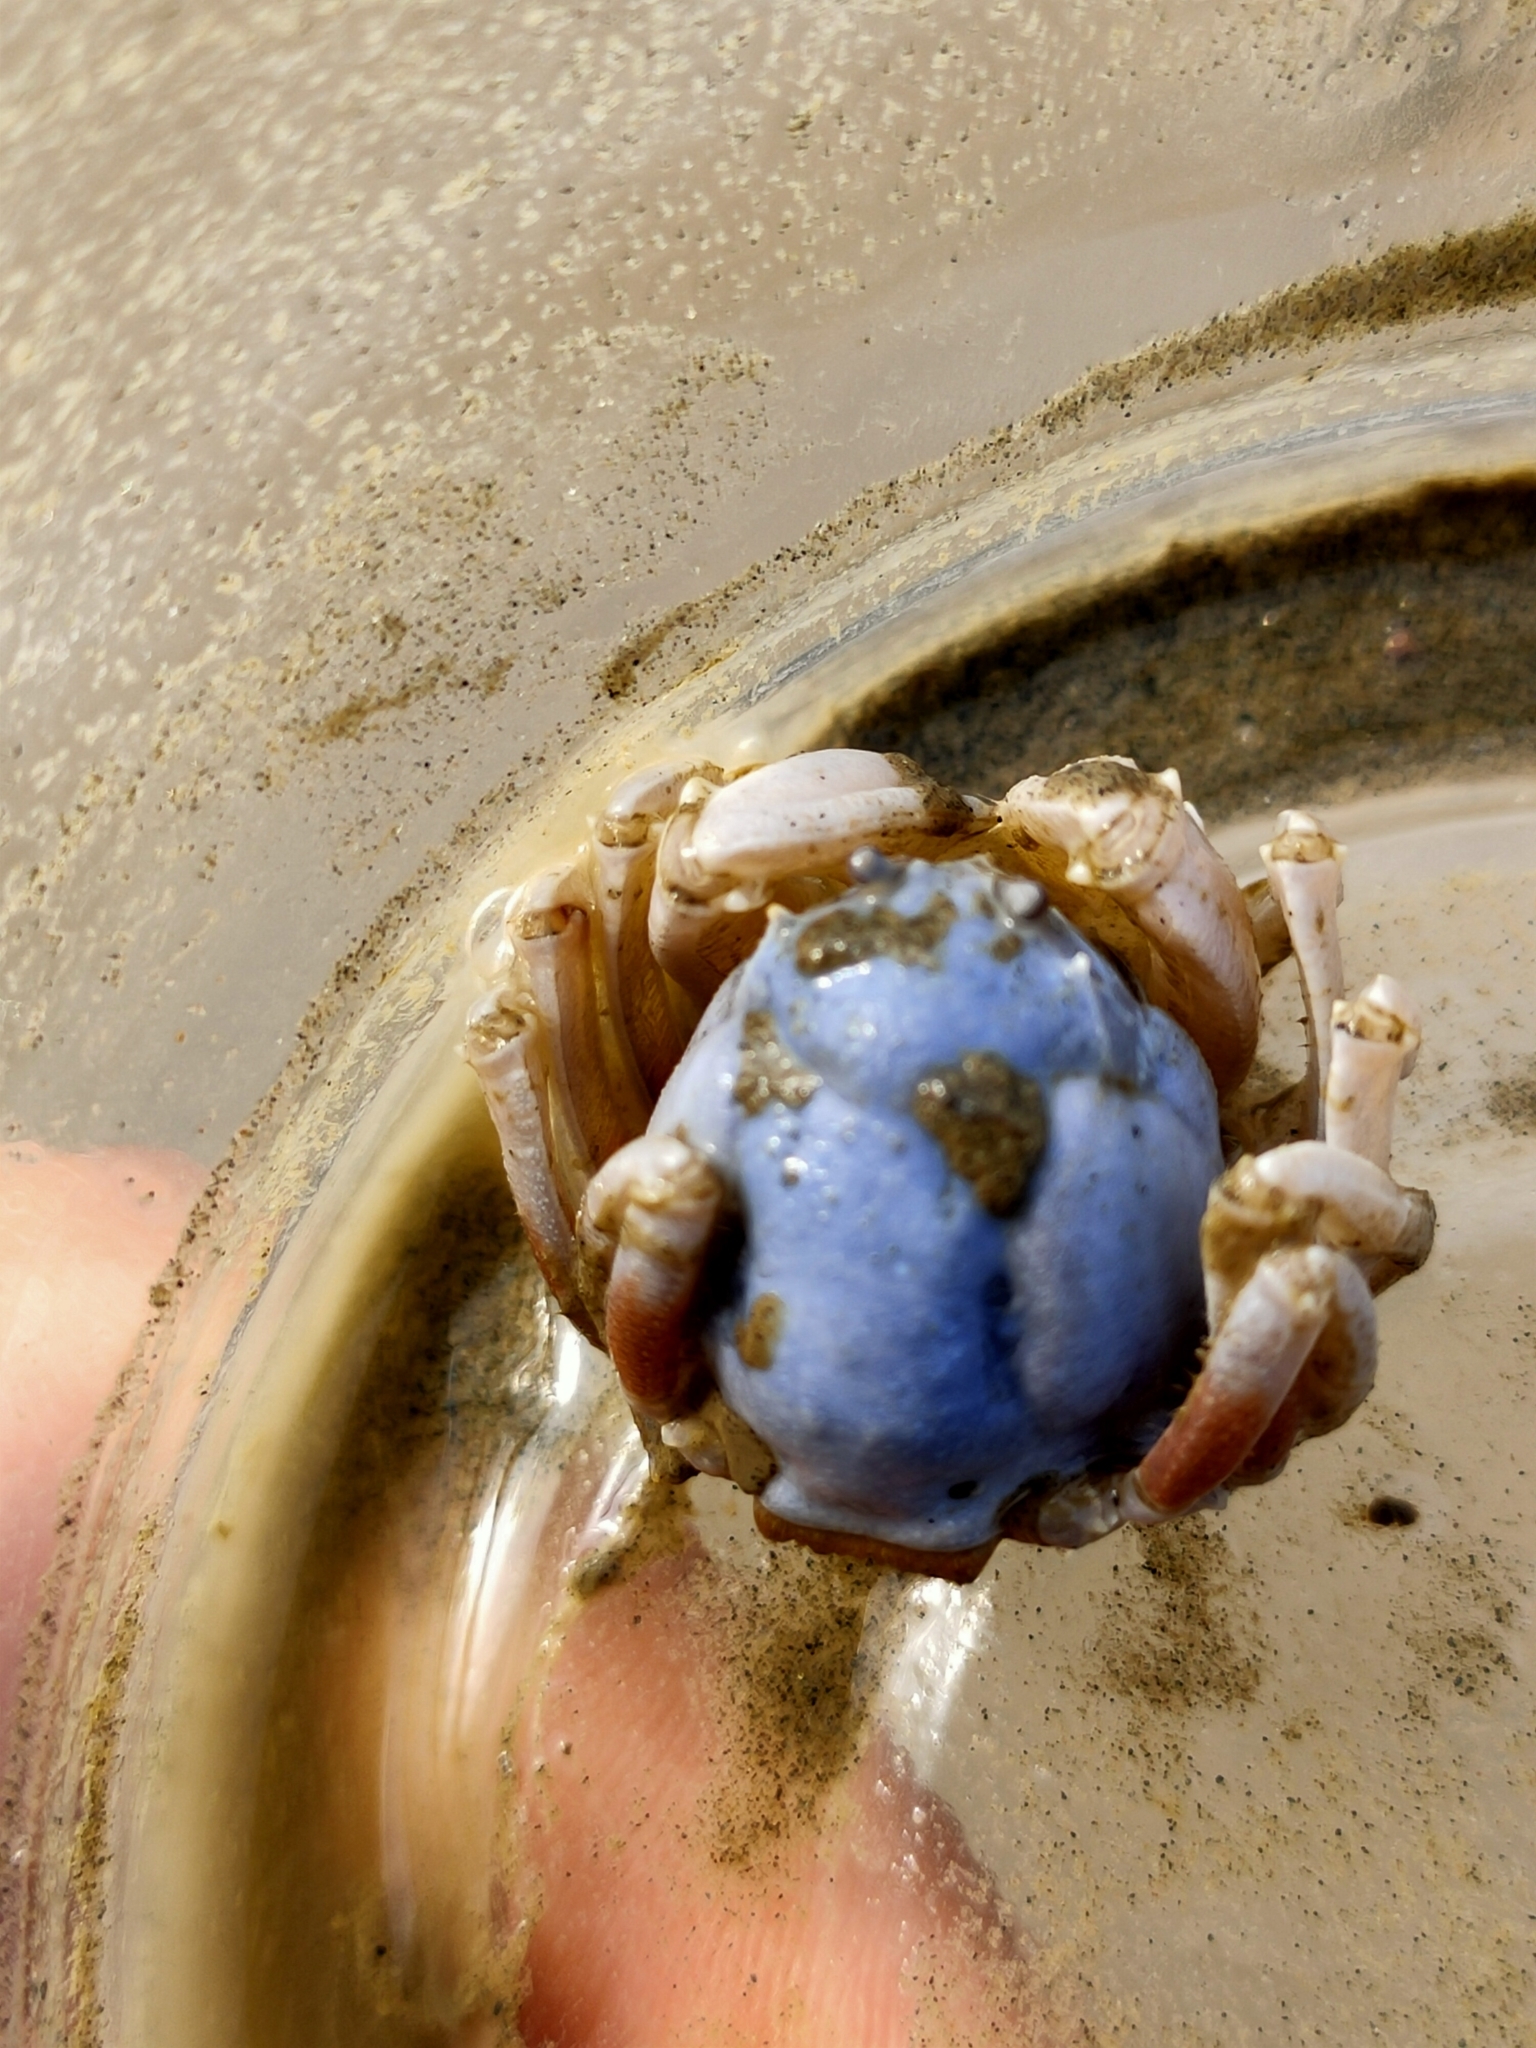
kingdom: Animalia
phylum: Arthropoda
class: Malacostraca
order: Decapoda
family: Mictyridae
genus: Mictyris
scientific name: Mictyris brevidactylus
